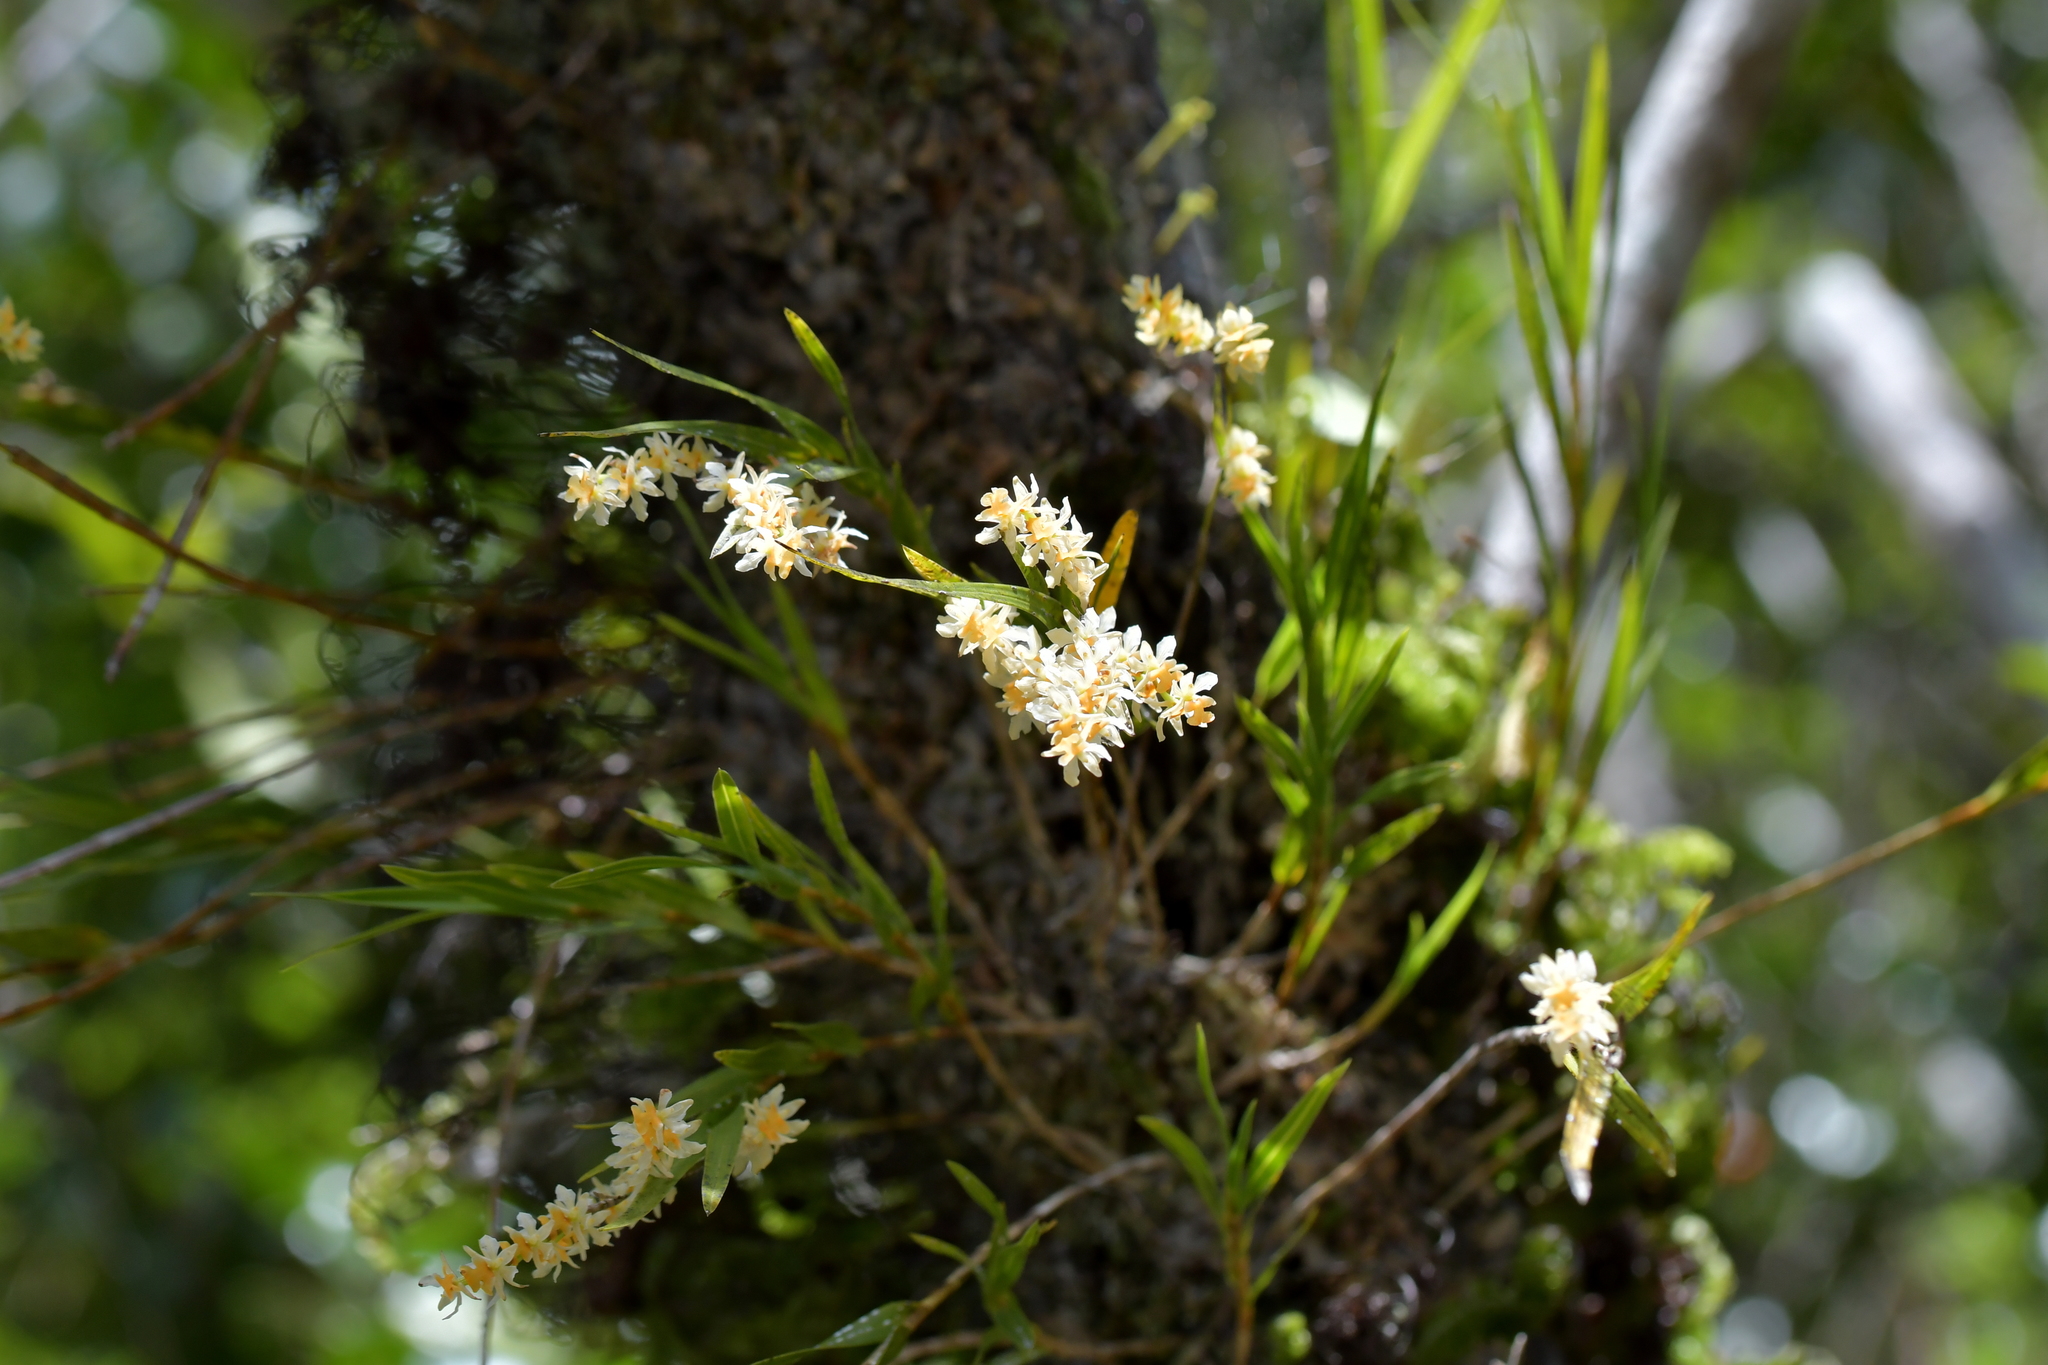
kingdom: Plantae
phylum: Tracheophyta
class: Liliopsida
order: Asparagales
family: Orchidaceae
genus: Earina
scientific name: Earina mucronata
